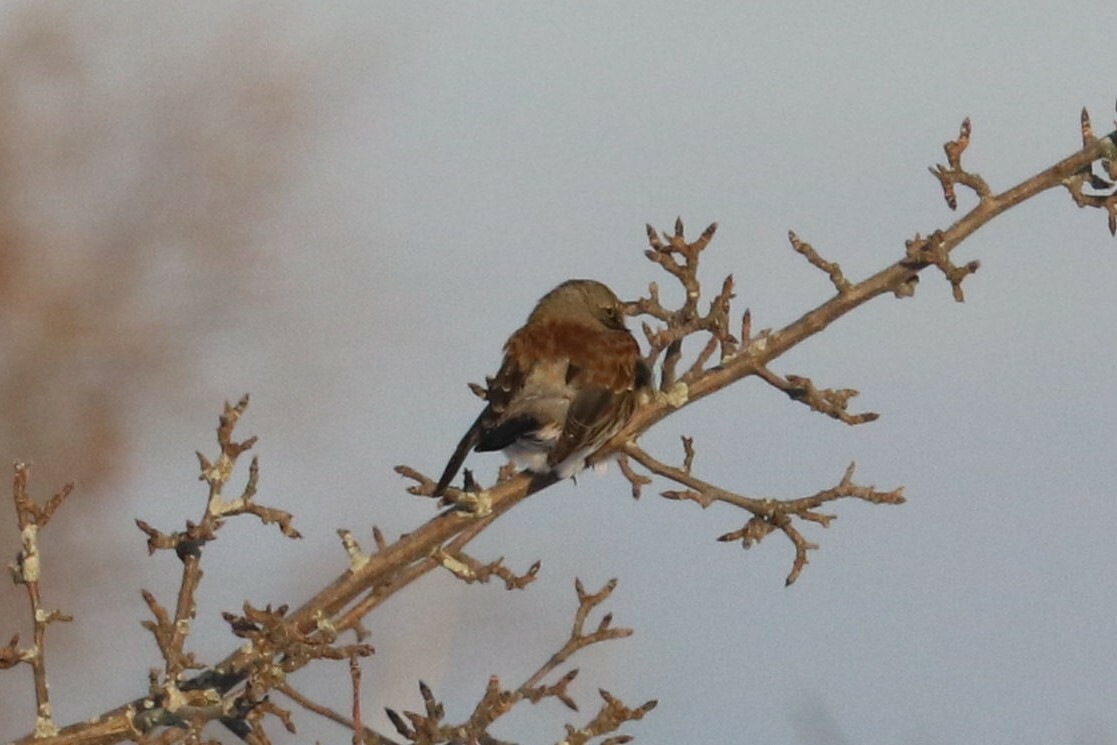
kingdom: Animalia
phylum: Chordata
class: Aves
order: Passeriformes
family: Turdidae
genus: Turdus
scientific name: Turdus pilaris
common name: Fieldfare
